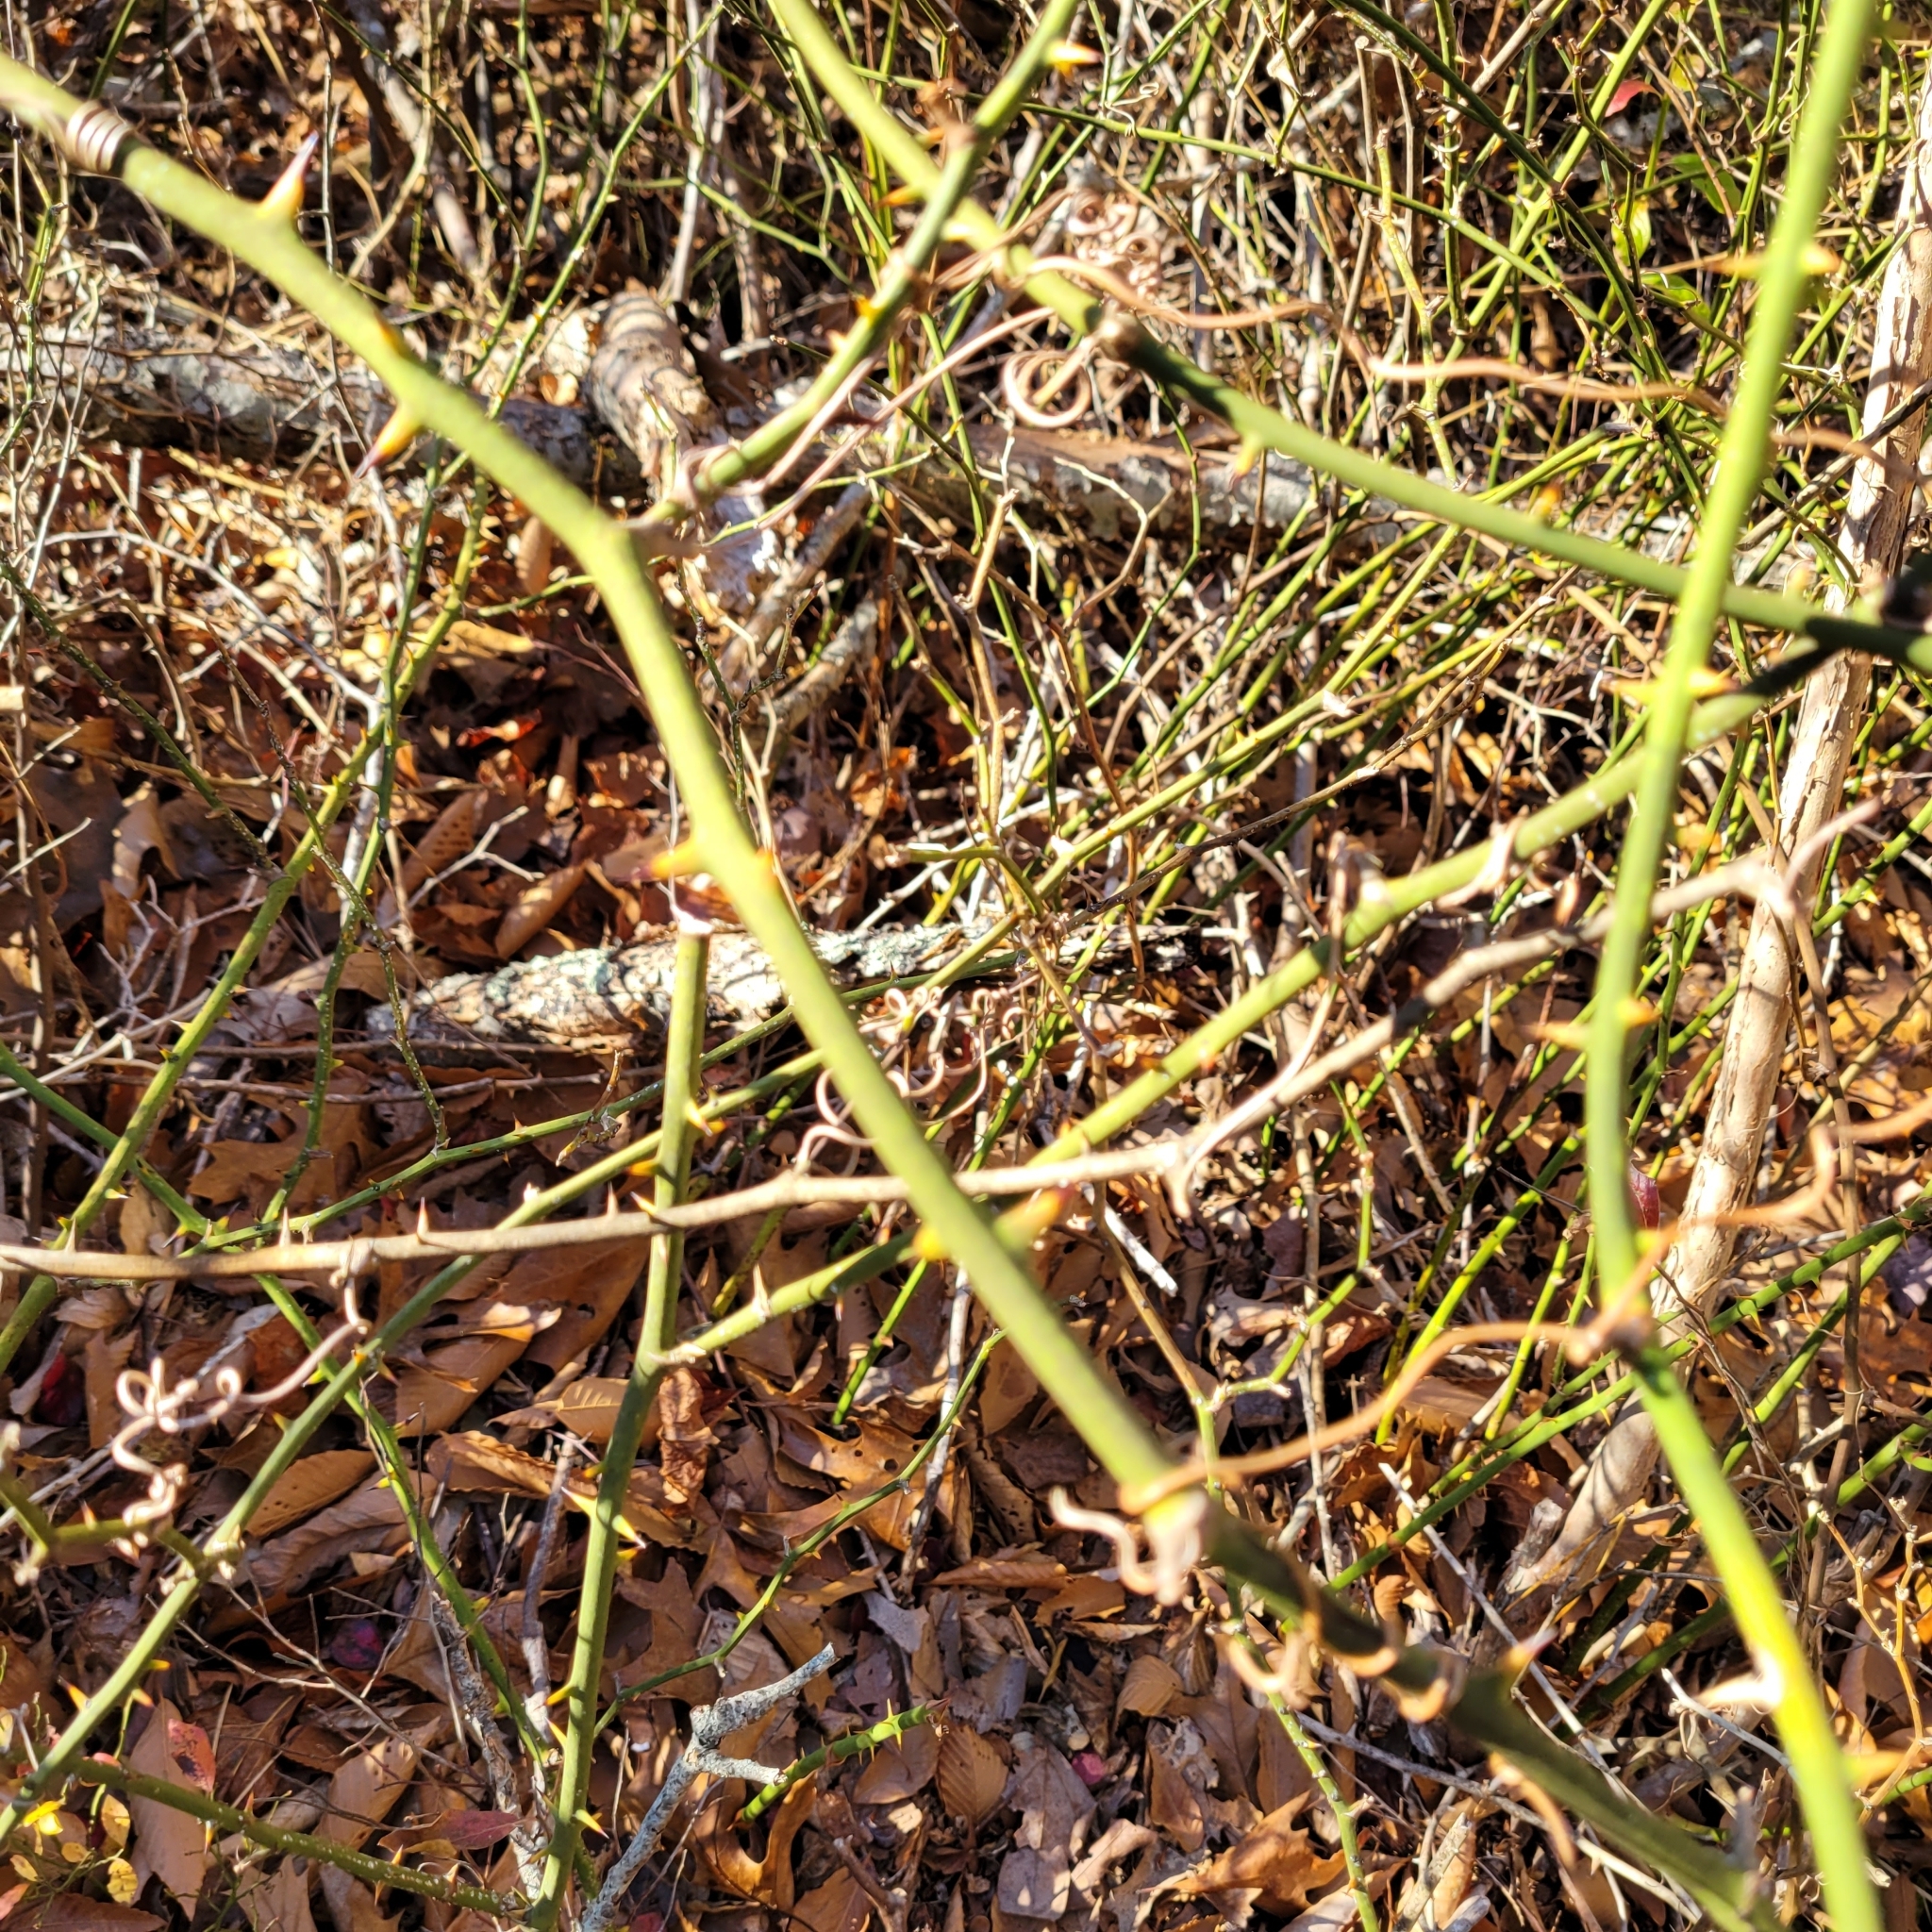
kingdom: Plantae
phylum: Tracheophyta
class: Liliopsida
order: Liliales
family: Smilacaceae
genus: Smilax
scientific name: Smilax rotundifolia
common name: Bullbriar
